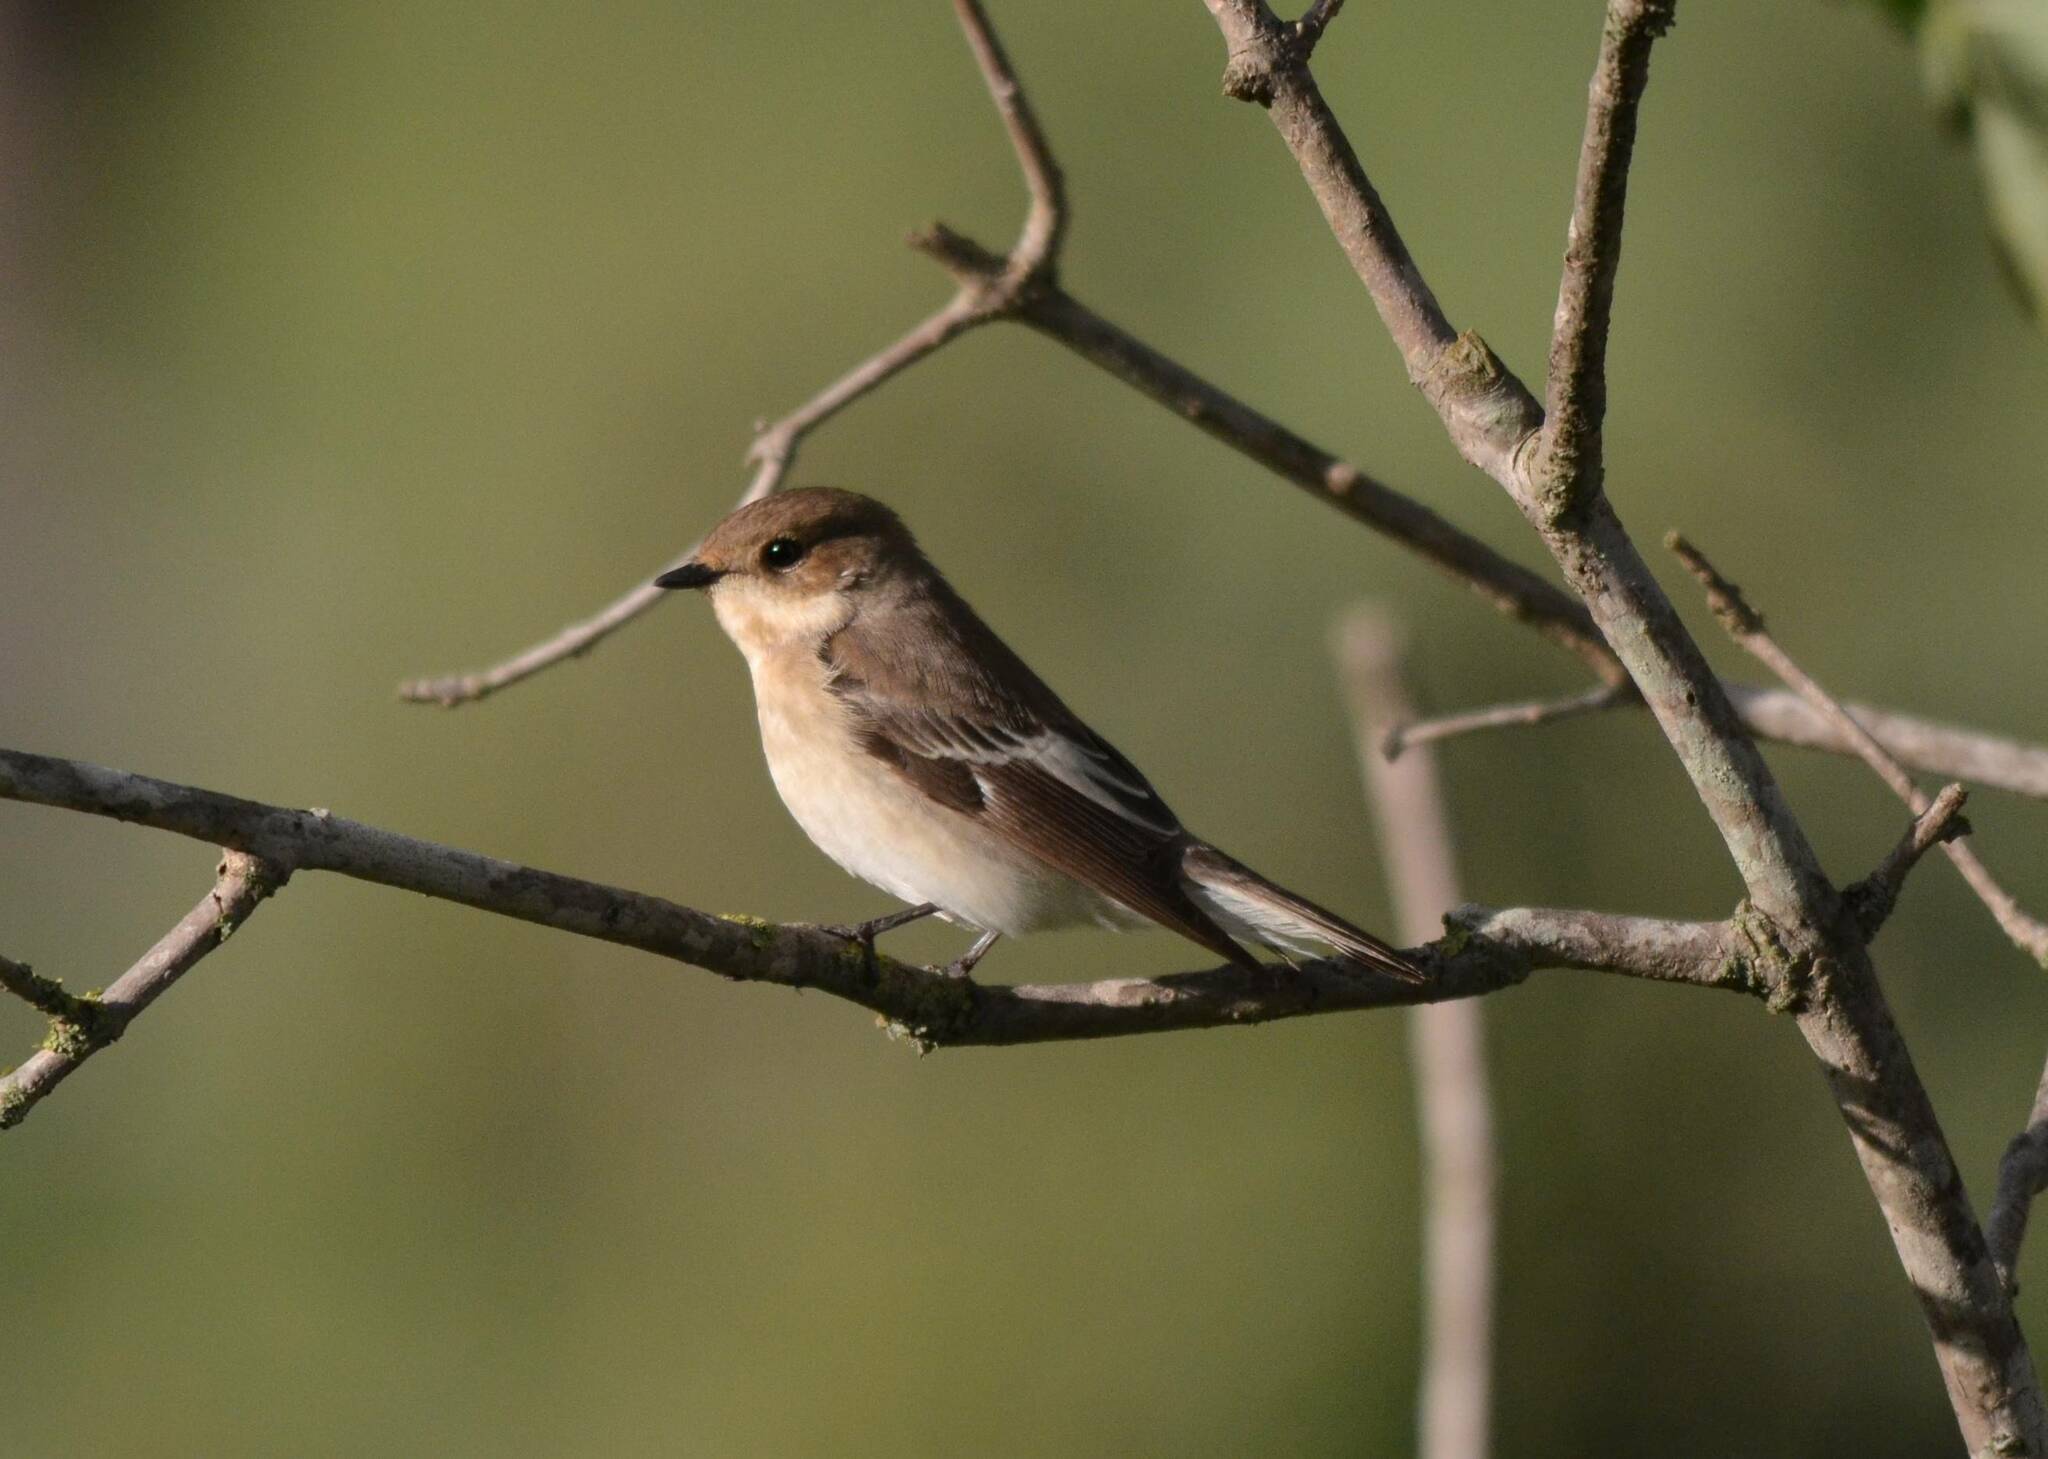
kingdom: Animalia
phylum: Chordata
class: Aves
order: Passeriformes
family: Muscicapidae
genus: Ficedula
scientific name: Ficedula hypoleuca
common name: European pied flycatcher
